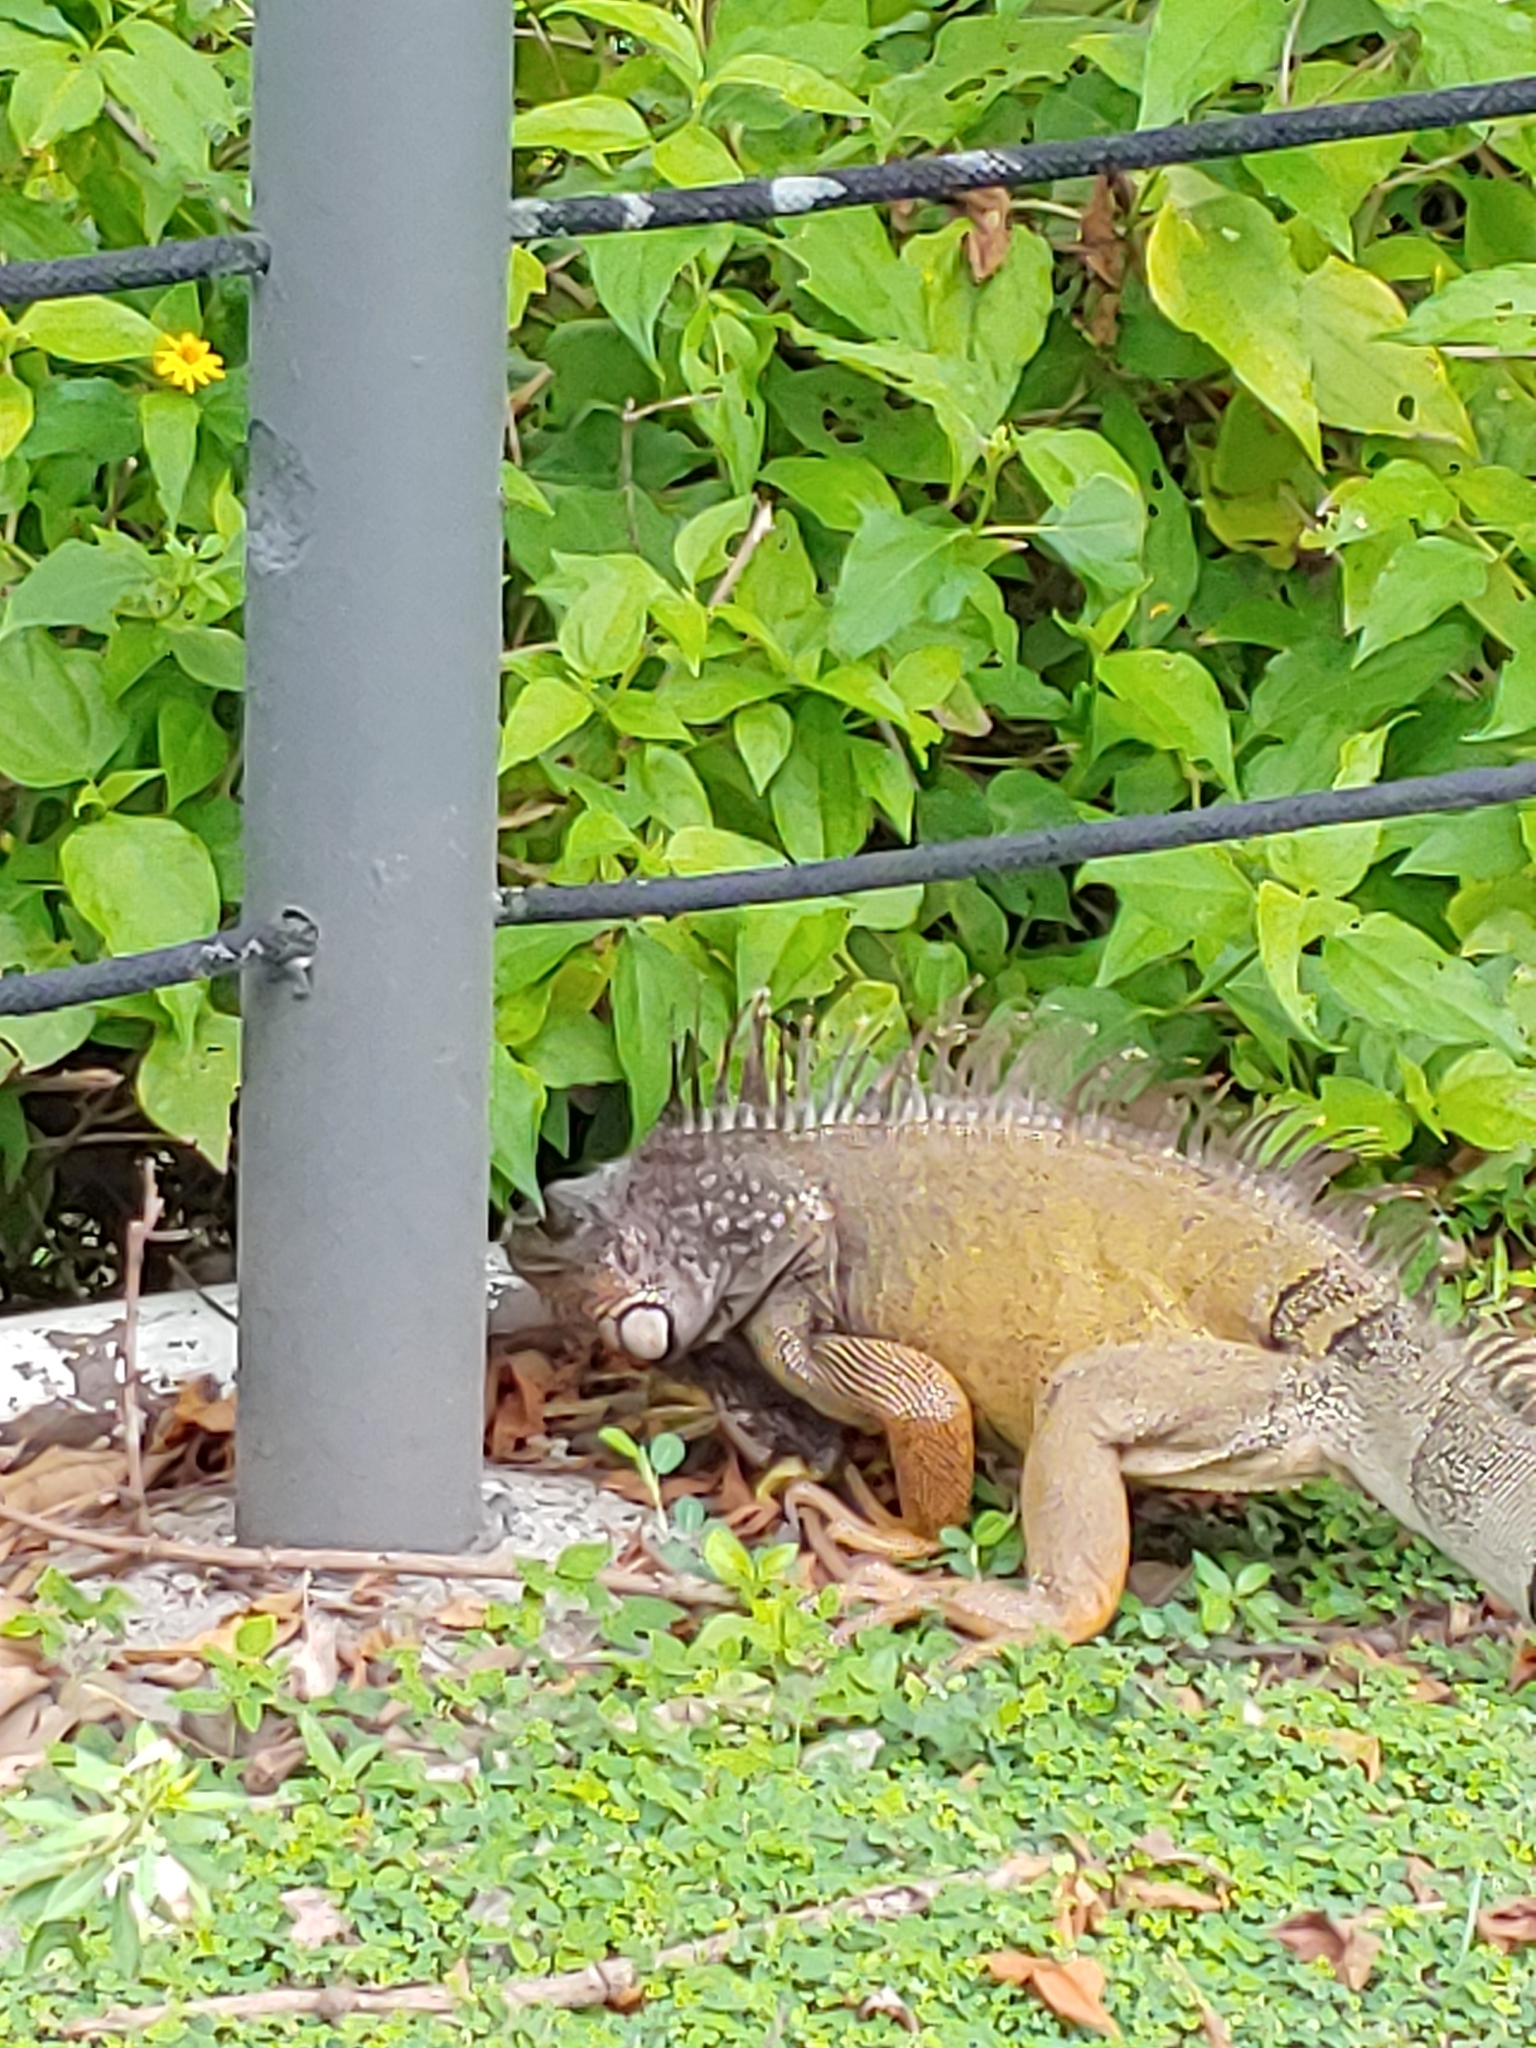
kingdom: Animalia
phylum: Chordata
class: Squamata
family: Iguanidae
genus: Iguana
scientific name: Iguana iguana
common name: Green iguana
